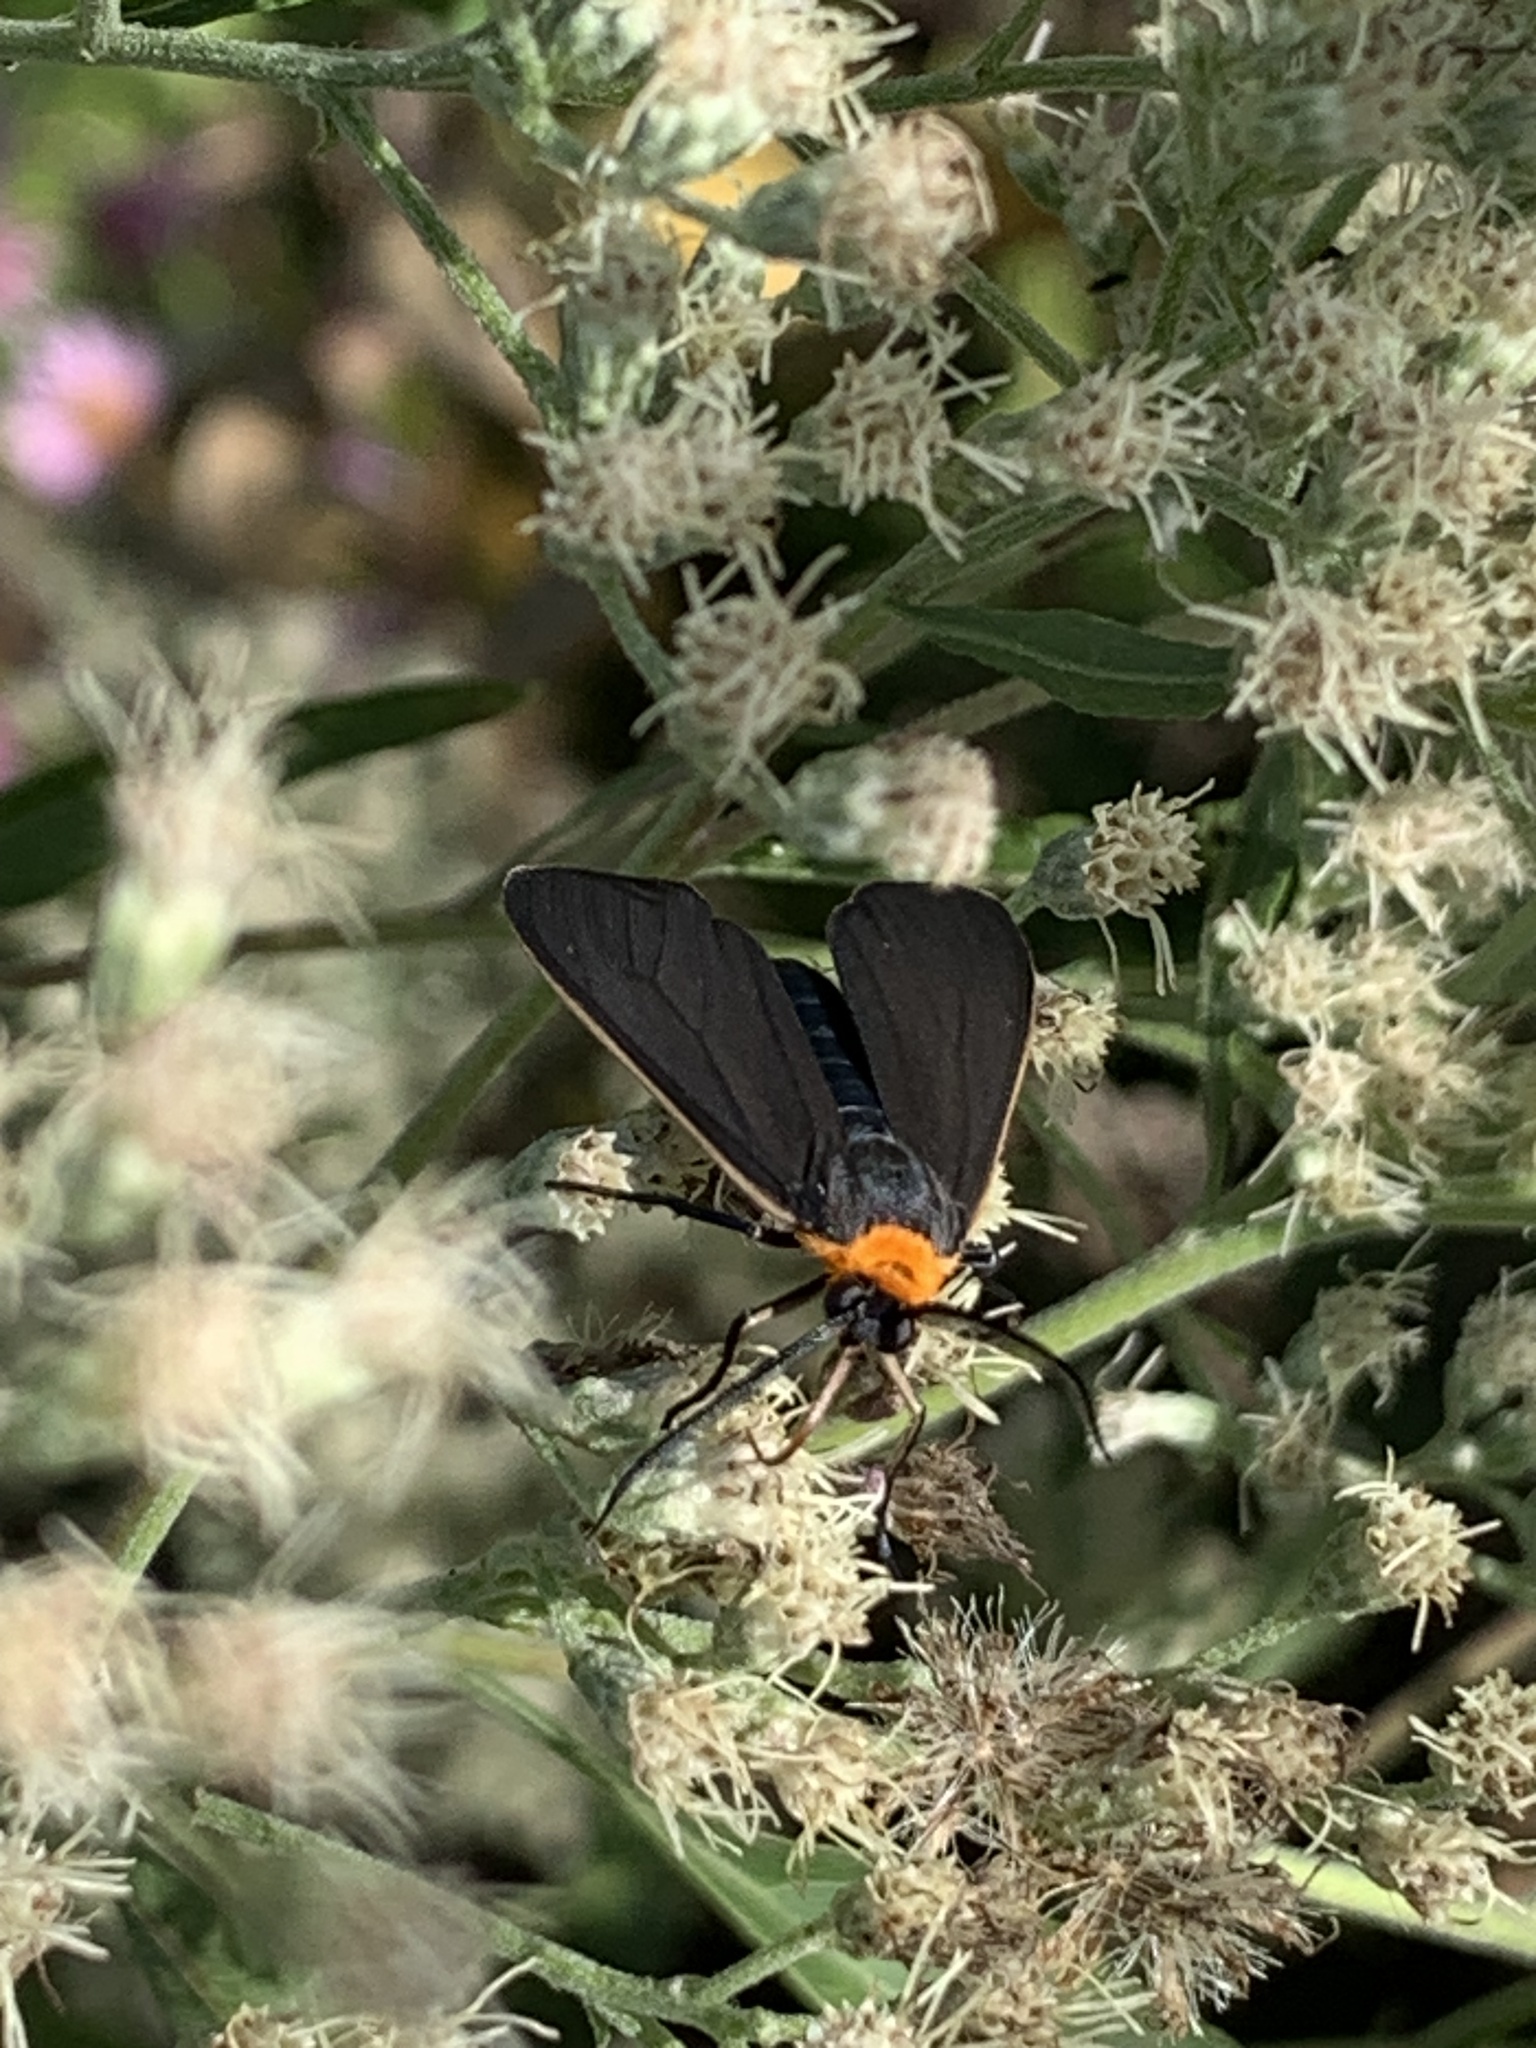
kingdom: Animalia
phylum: Arthropoda
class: Insecta
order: Lepidoptera
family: Erebidae
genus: Cisseps
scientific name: Cisseps fulvicollis
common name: Yellow-collared scape moth
